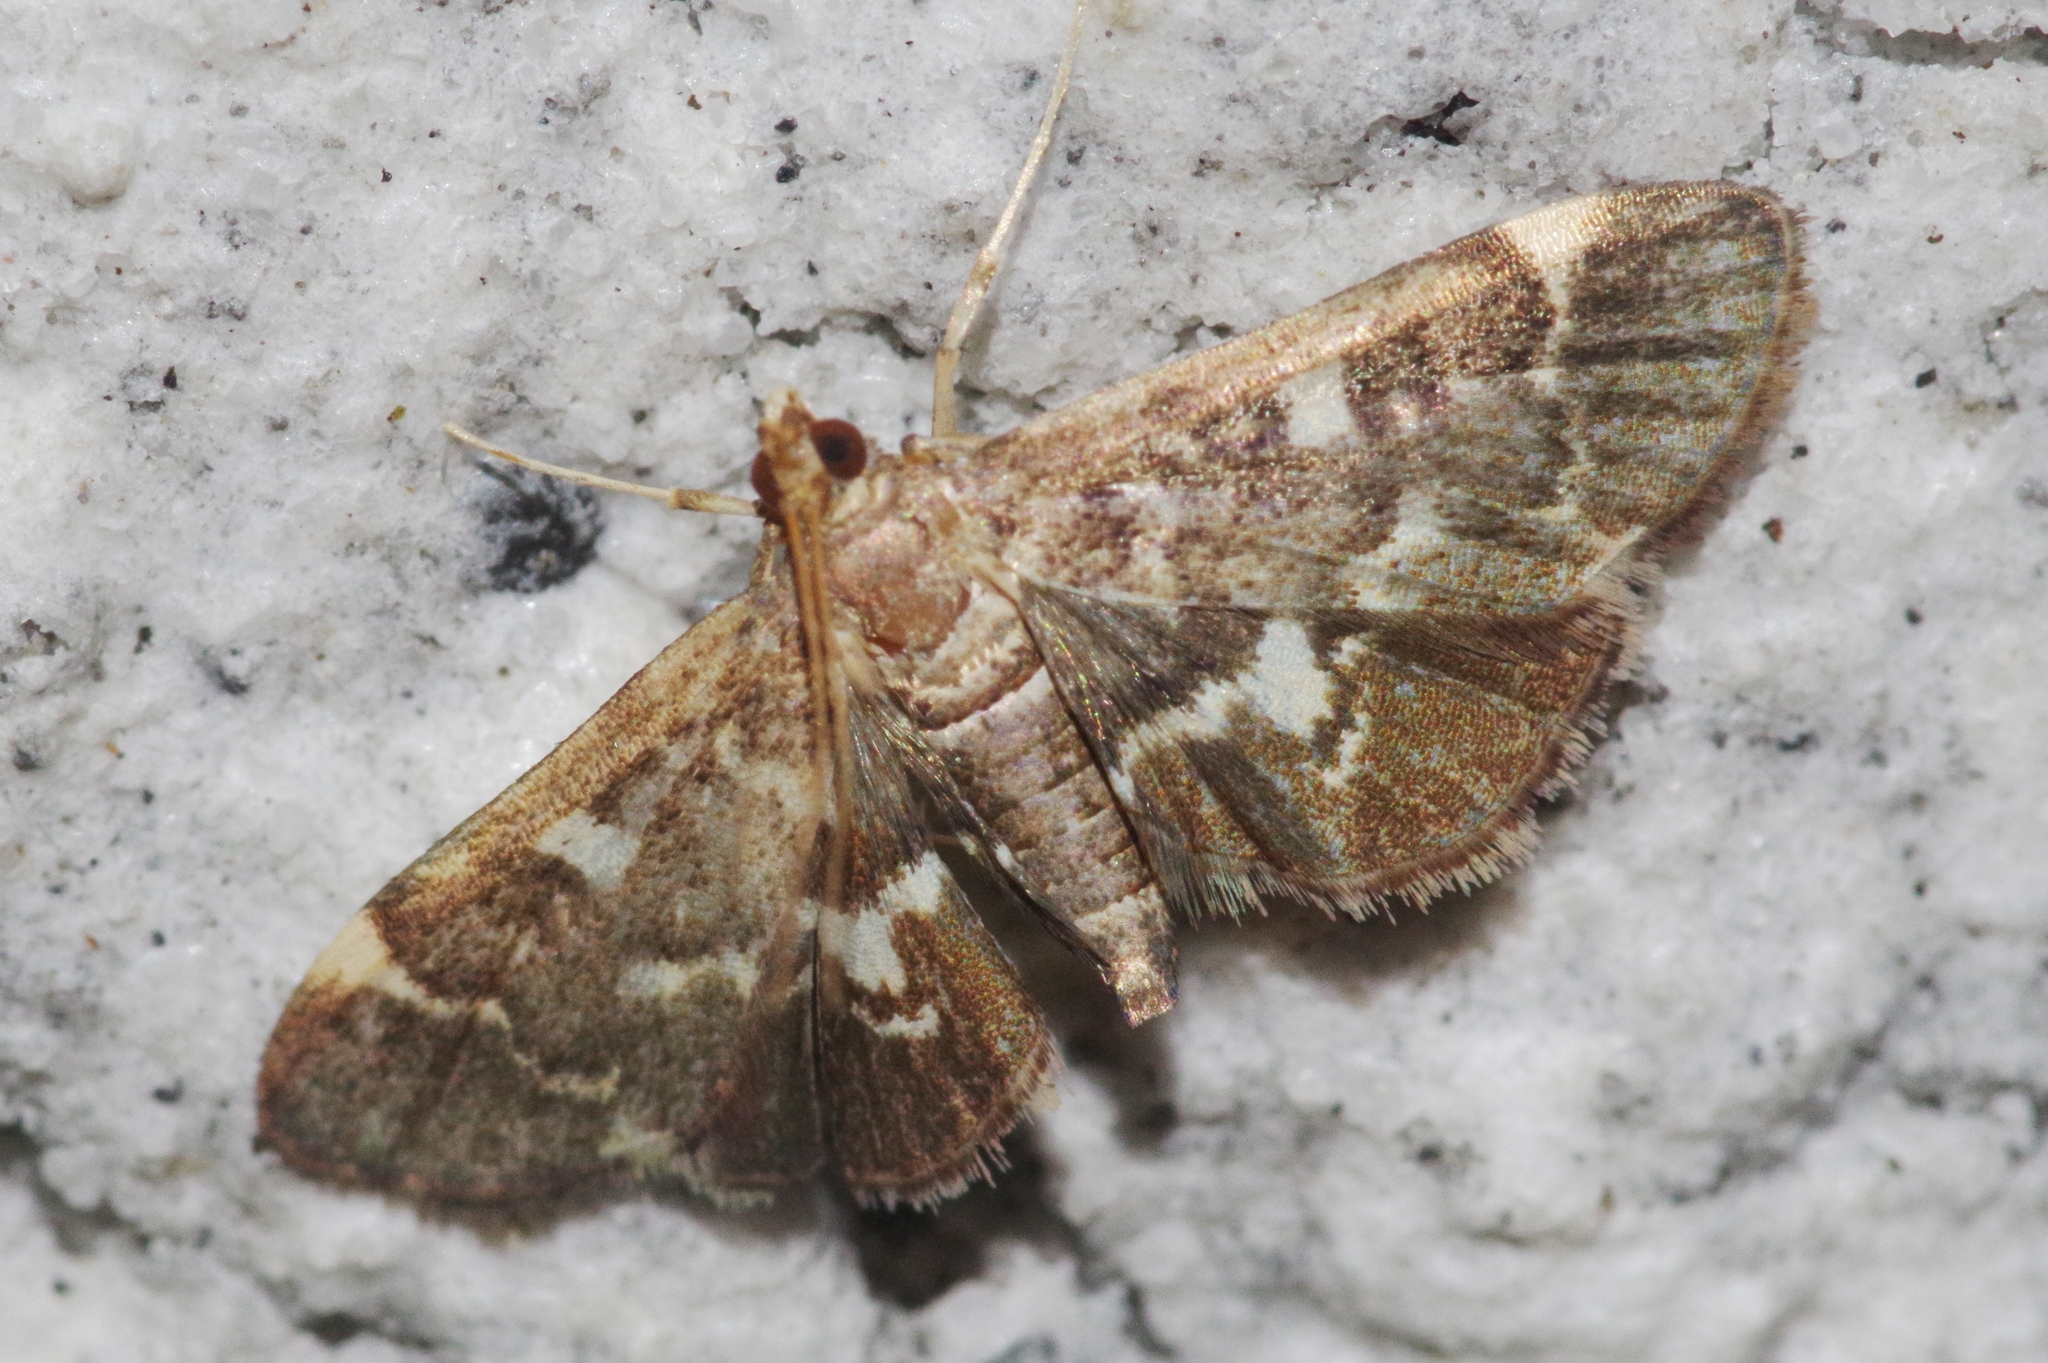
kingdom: Animalia
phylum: Arthropoda
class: Insecta
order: Lepidoptera
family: Crambidae
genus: Piletocera
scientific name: Piletocera sodalis
